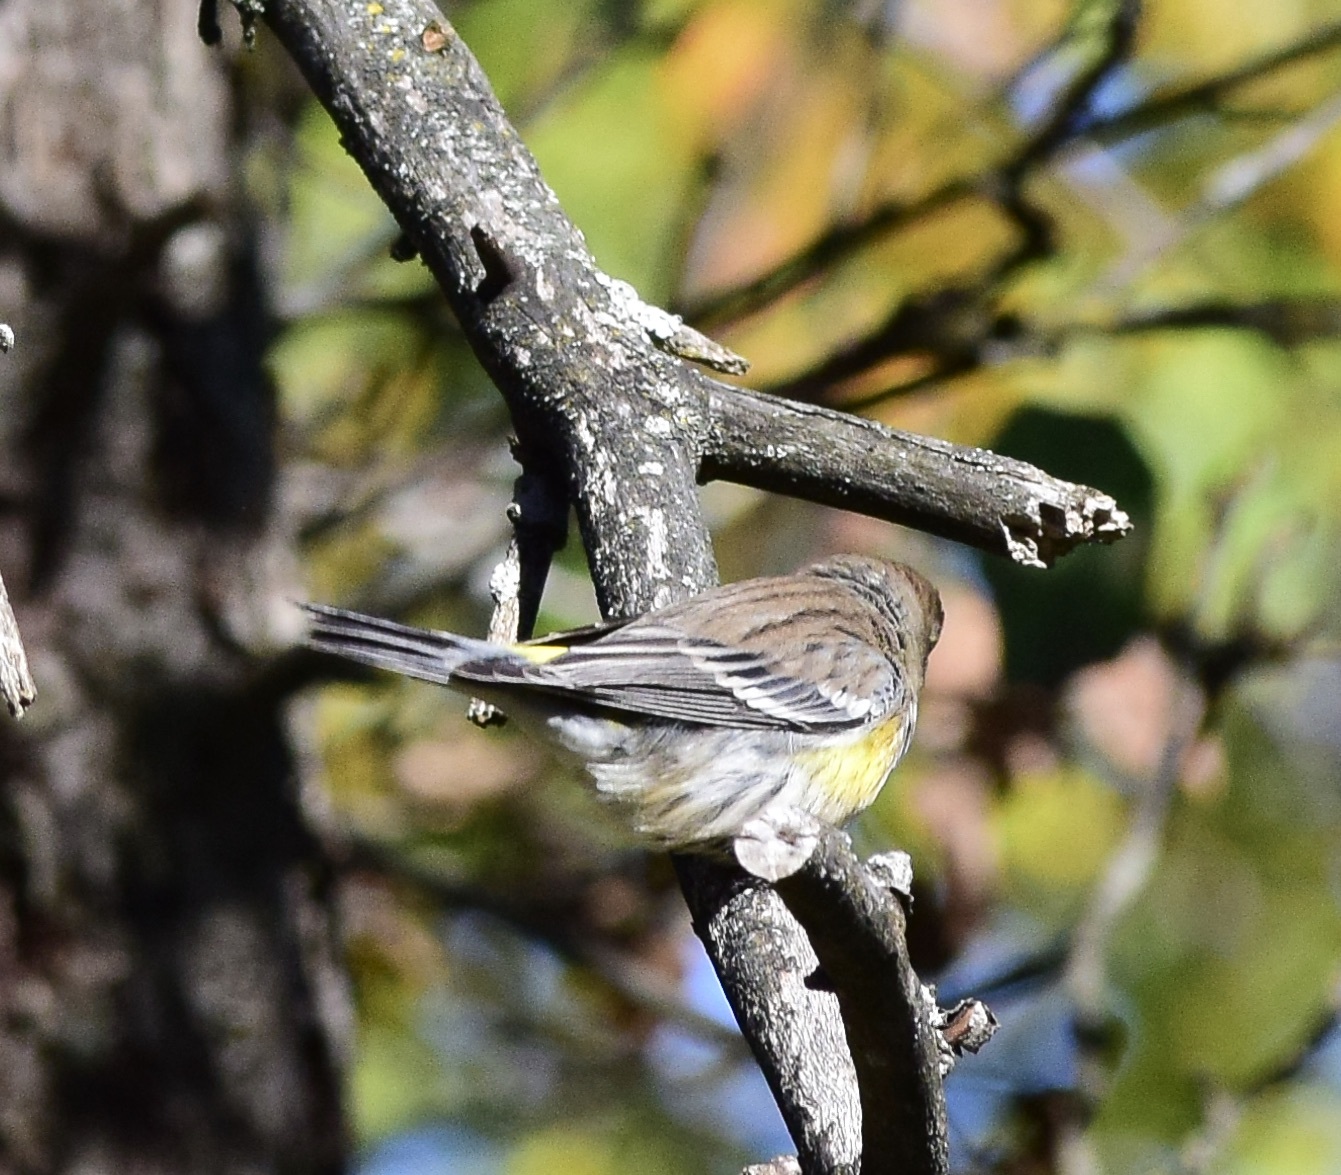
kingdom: Animalia
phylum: Chordata
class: Aves
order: Passeriformes
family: Parulidae
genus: Setophaga
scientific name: Setophaga coronata
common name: Myrtle warbler
